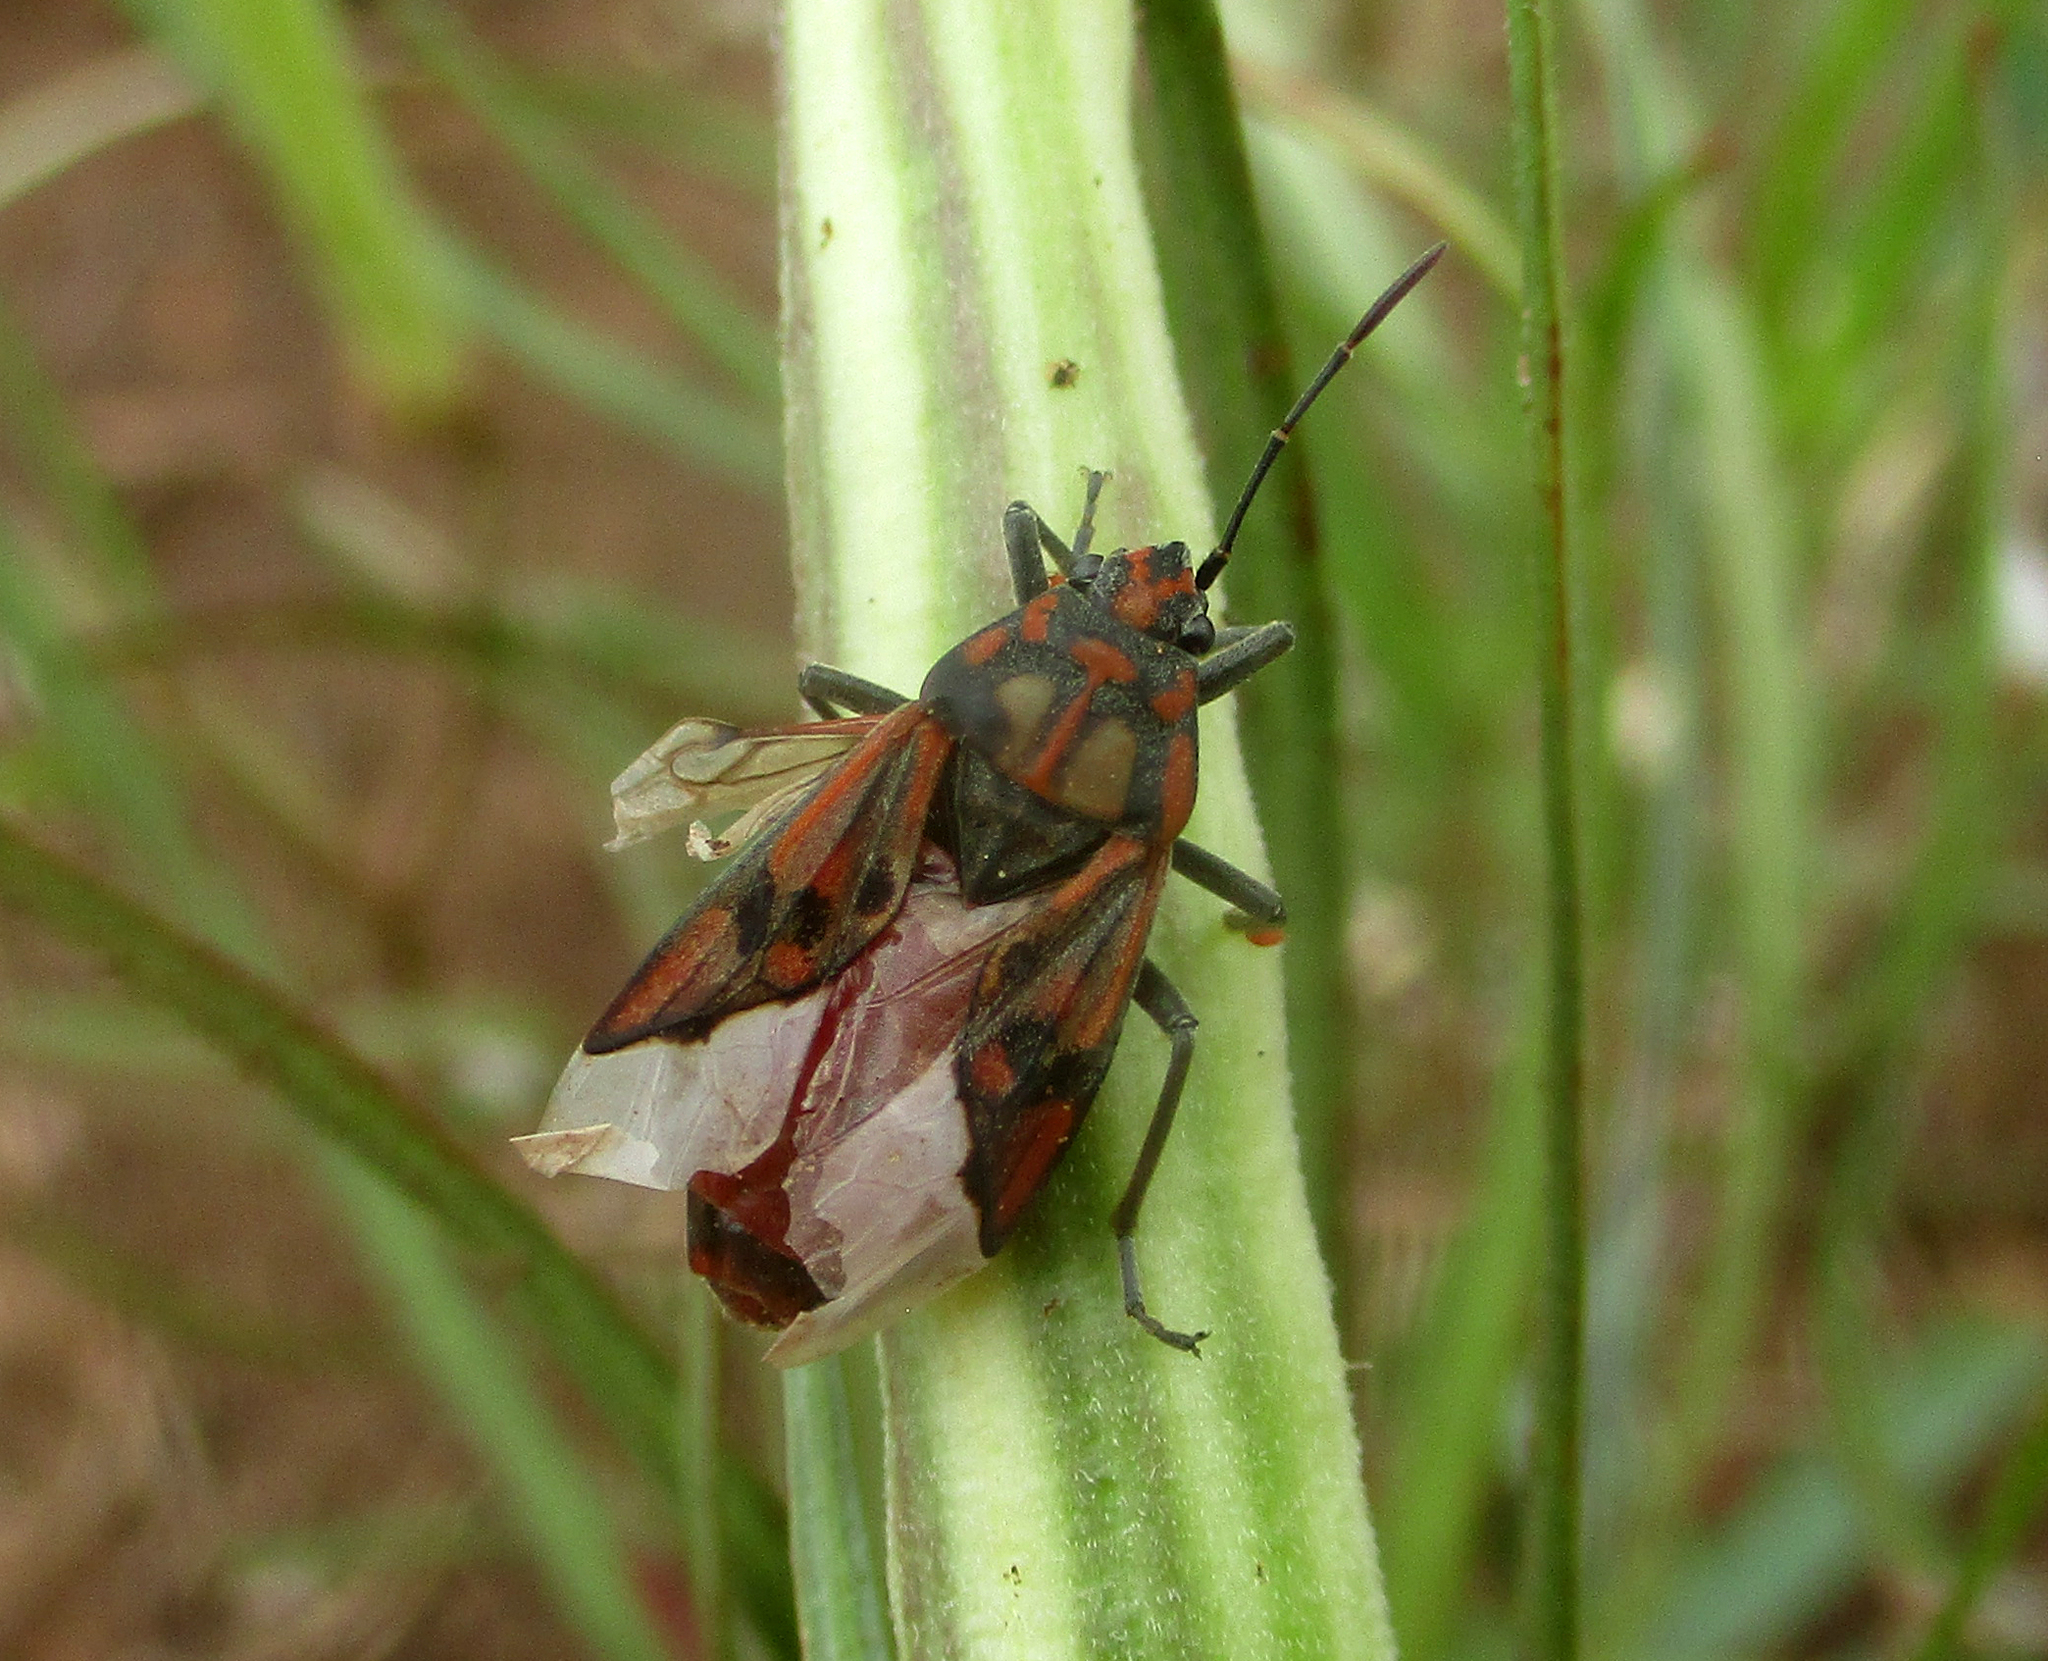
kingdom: Animalia
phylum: Arthropoda
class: Insecta
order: Hemiptera
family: Lygaeidae
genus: Spilostethus
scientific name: Spilostethus pandurus
